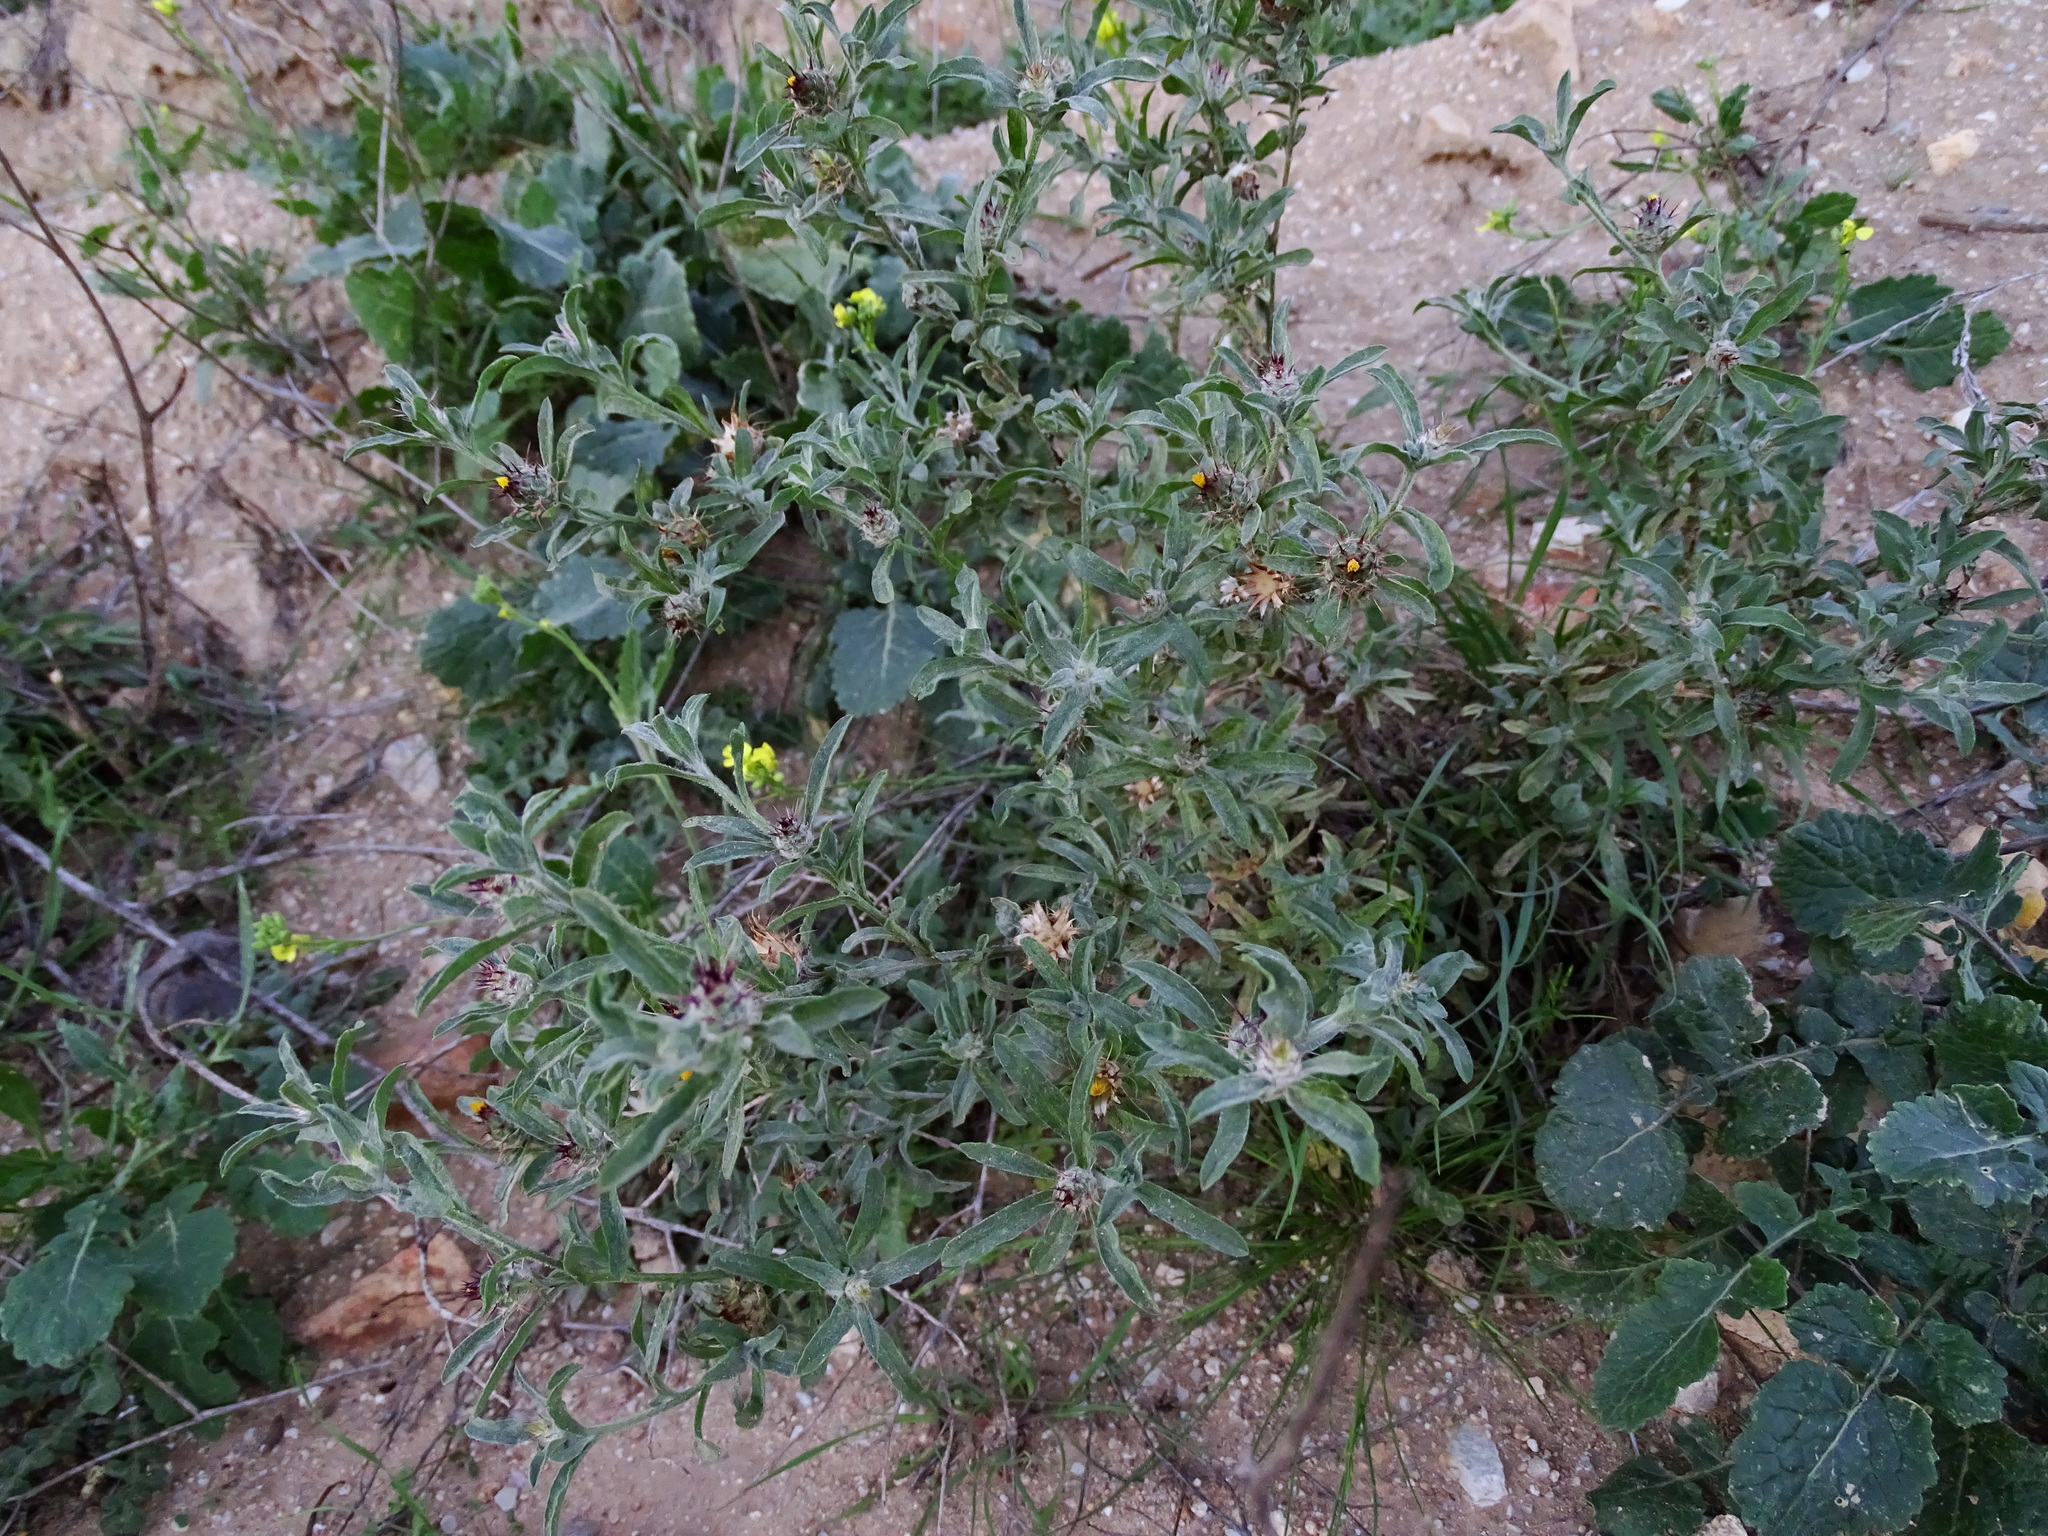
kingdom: Plantae
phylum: Tracheophyta
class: Magnoliopsida
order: Asterales
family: Asteraceae
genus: Centaurea
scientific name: Centaurea melitensis
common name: Maltese star-thistle
